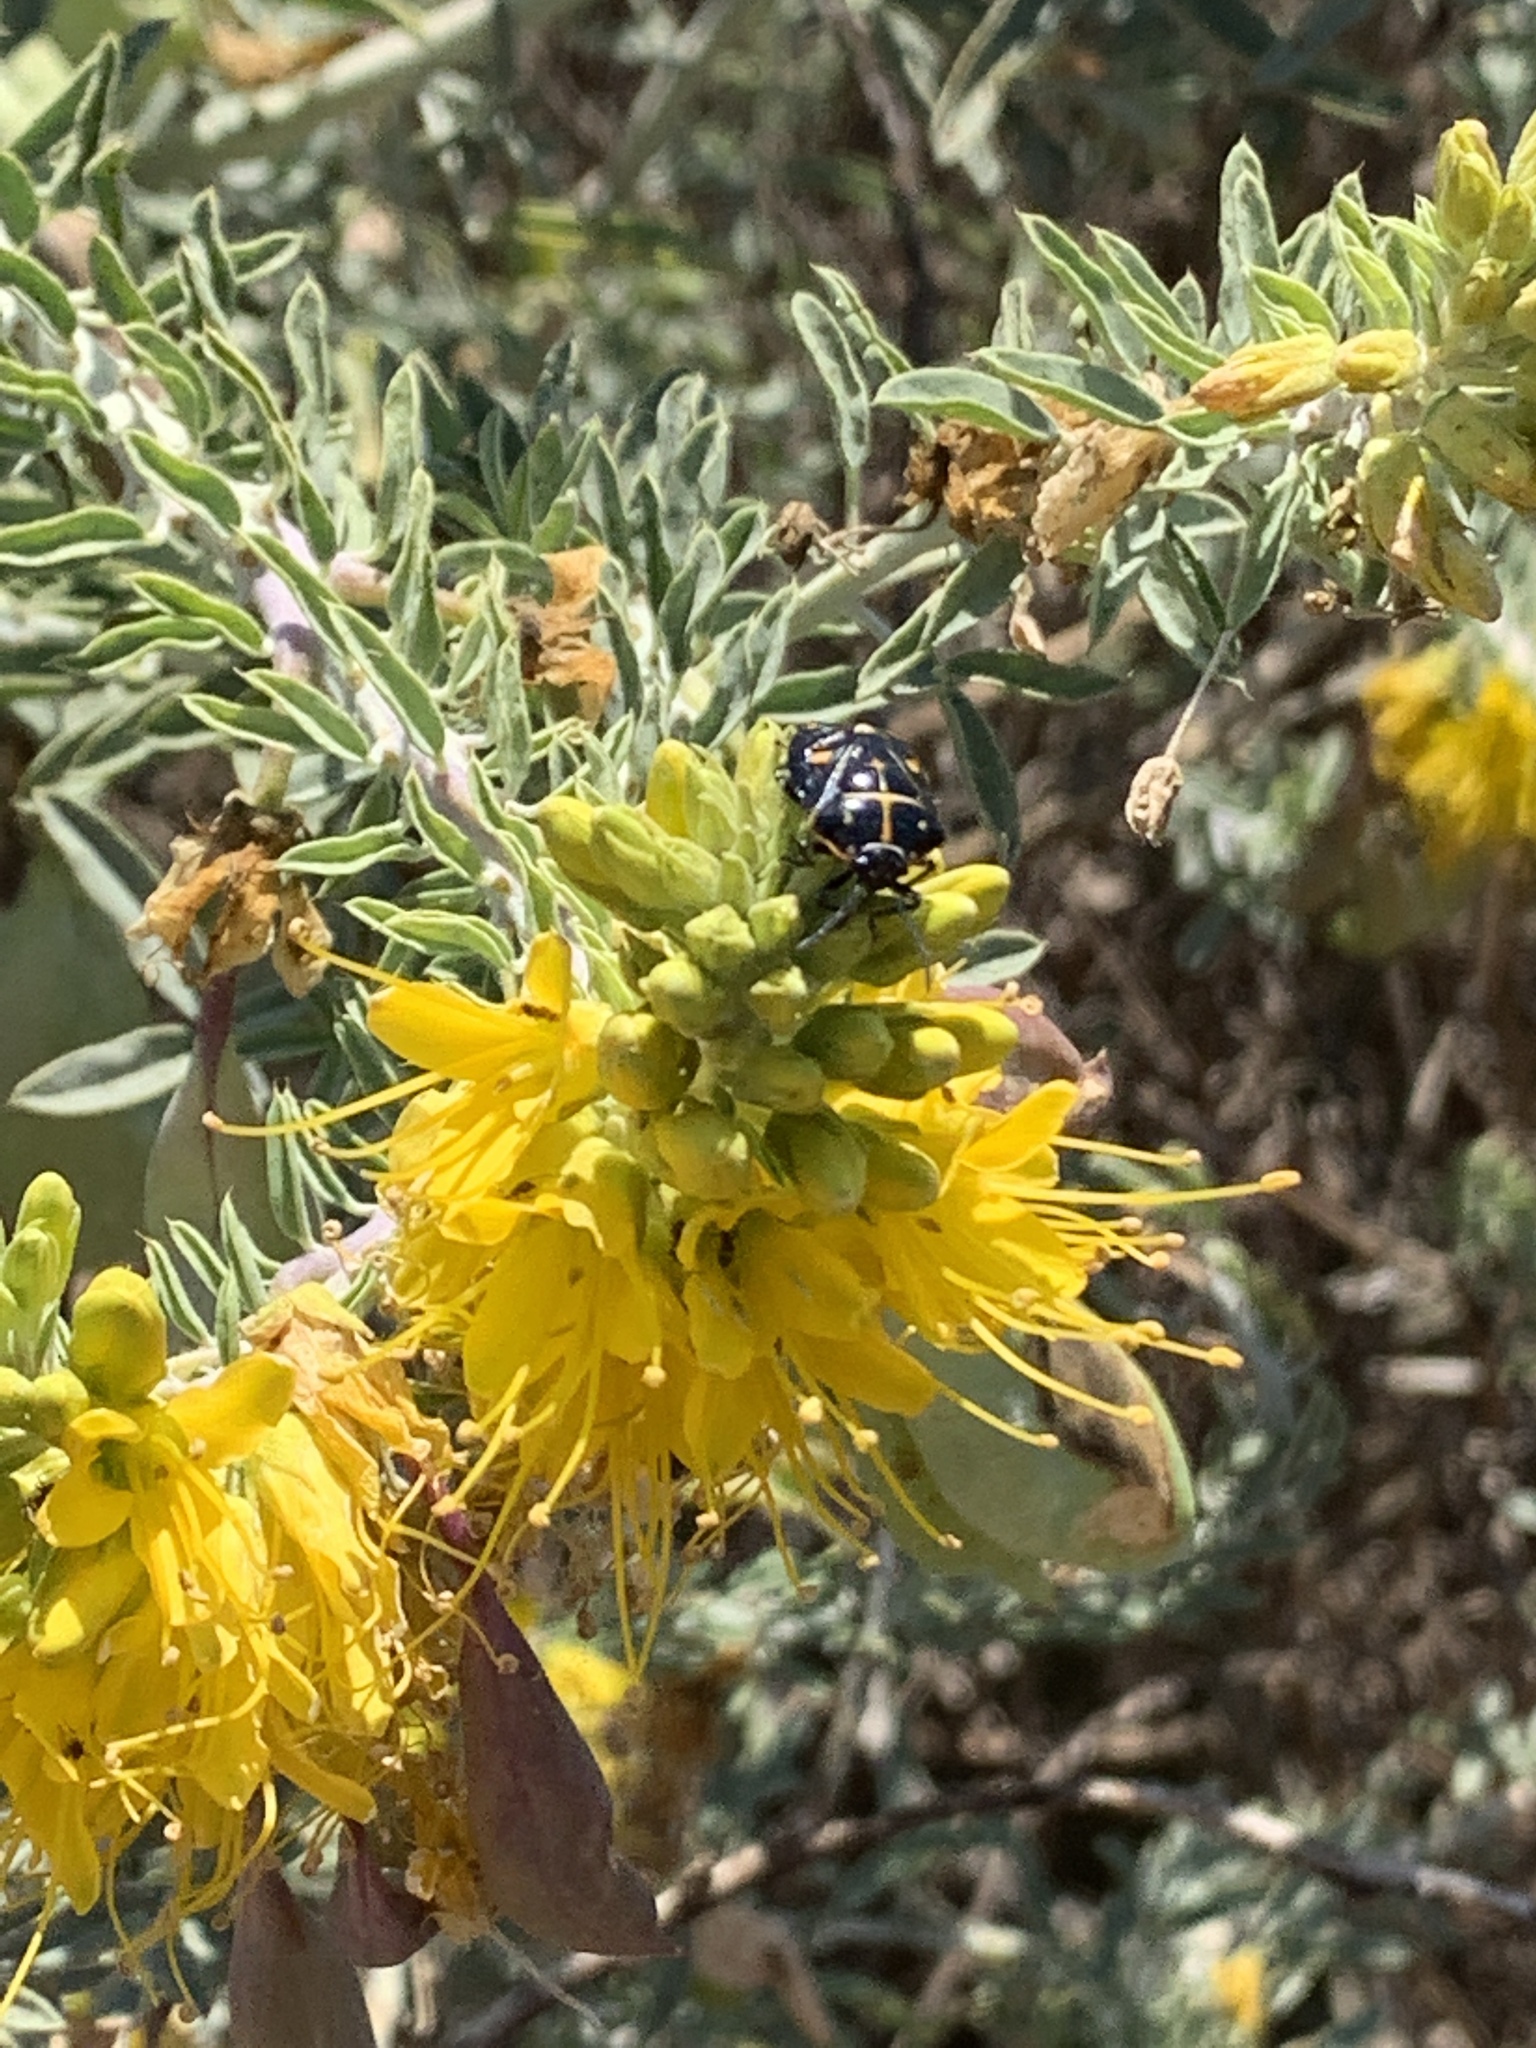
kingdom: Animalia
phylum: Arthropoda
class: Insecta
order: Hemiptera
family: Pentatomidae
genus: Murgantia
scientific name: Murgantia histrionica
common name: Harlequin bug
